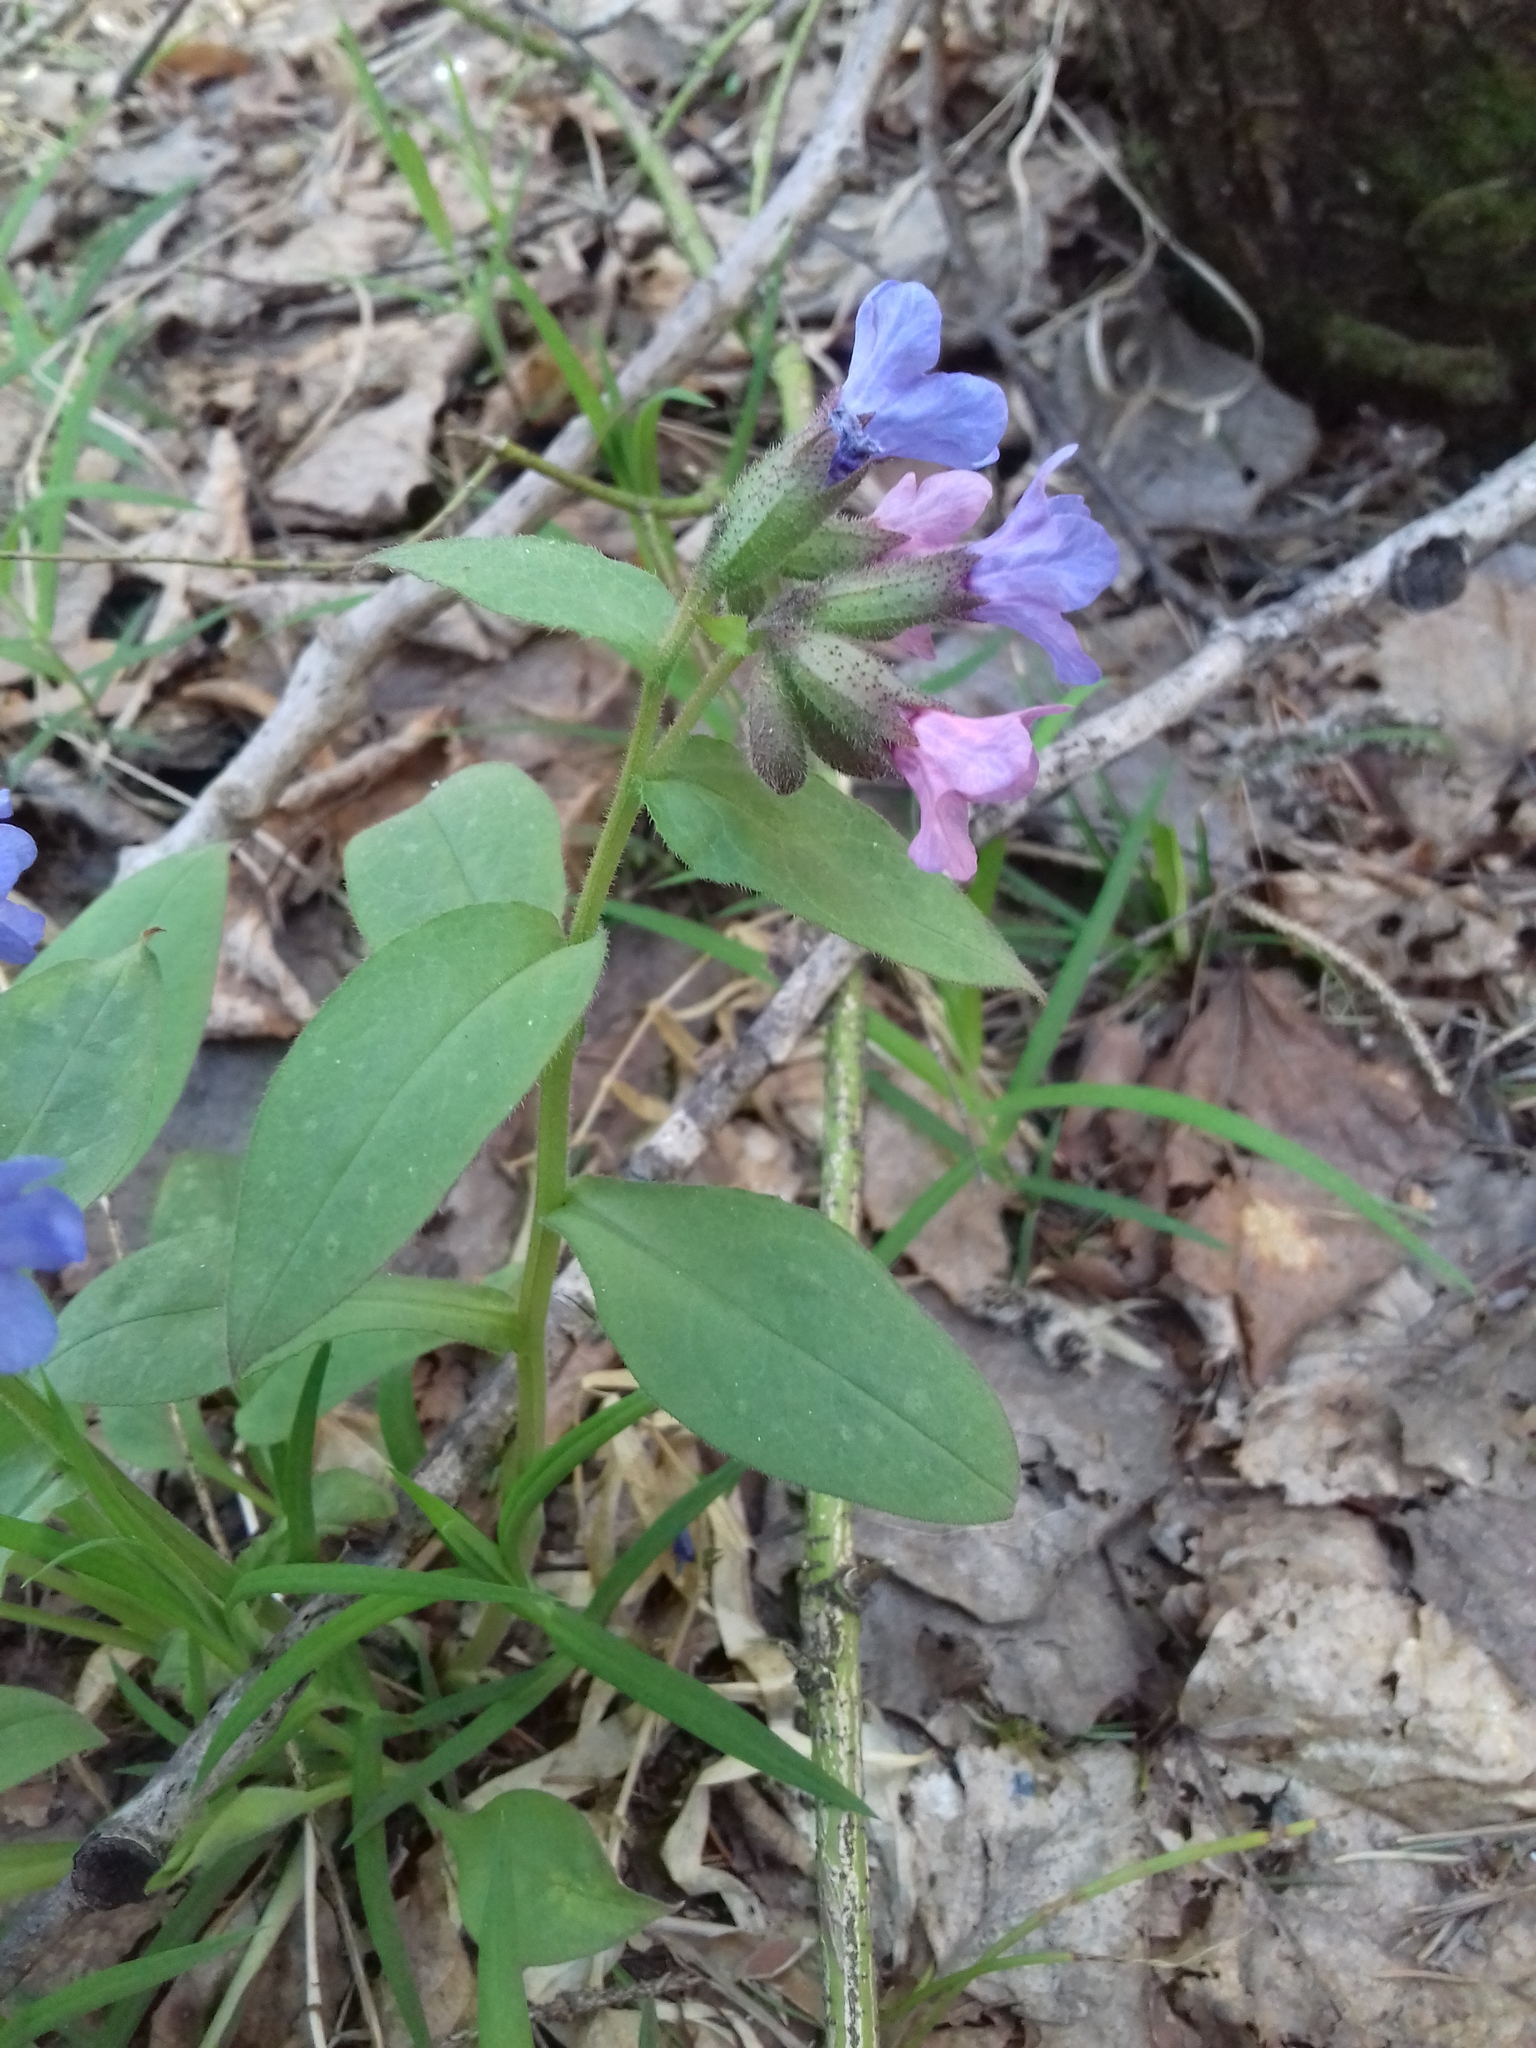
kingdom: Plantae
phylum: Tracheophyta
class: Magnoliopsida
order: Boraginales
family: Boraginaceae
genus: Pulmonaria
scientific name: Pulmonaria mollis
